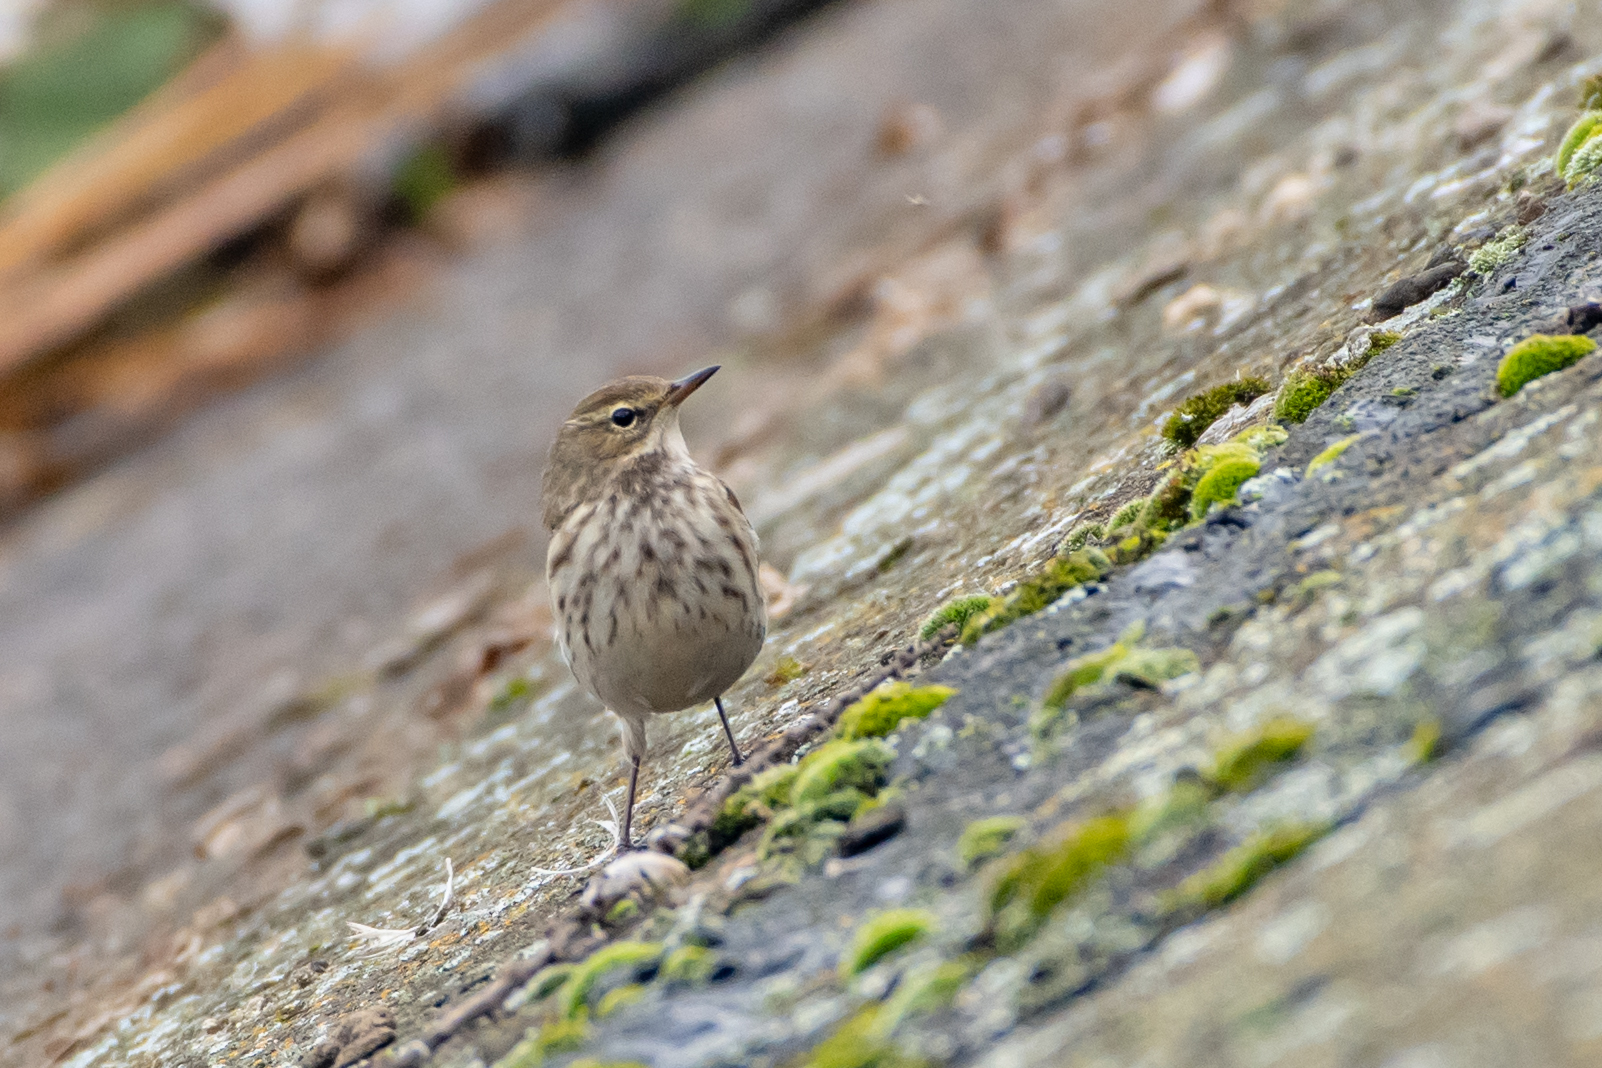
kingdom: Animalia
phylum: Chordata
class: Aves
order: Passeriformes
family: Motacillidae
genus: Anthus
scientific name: Anthus spinoletta
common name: Water pipit
